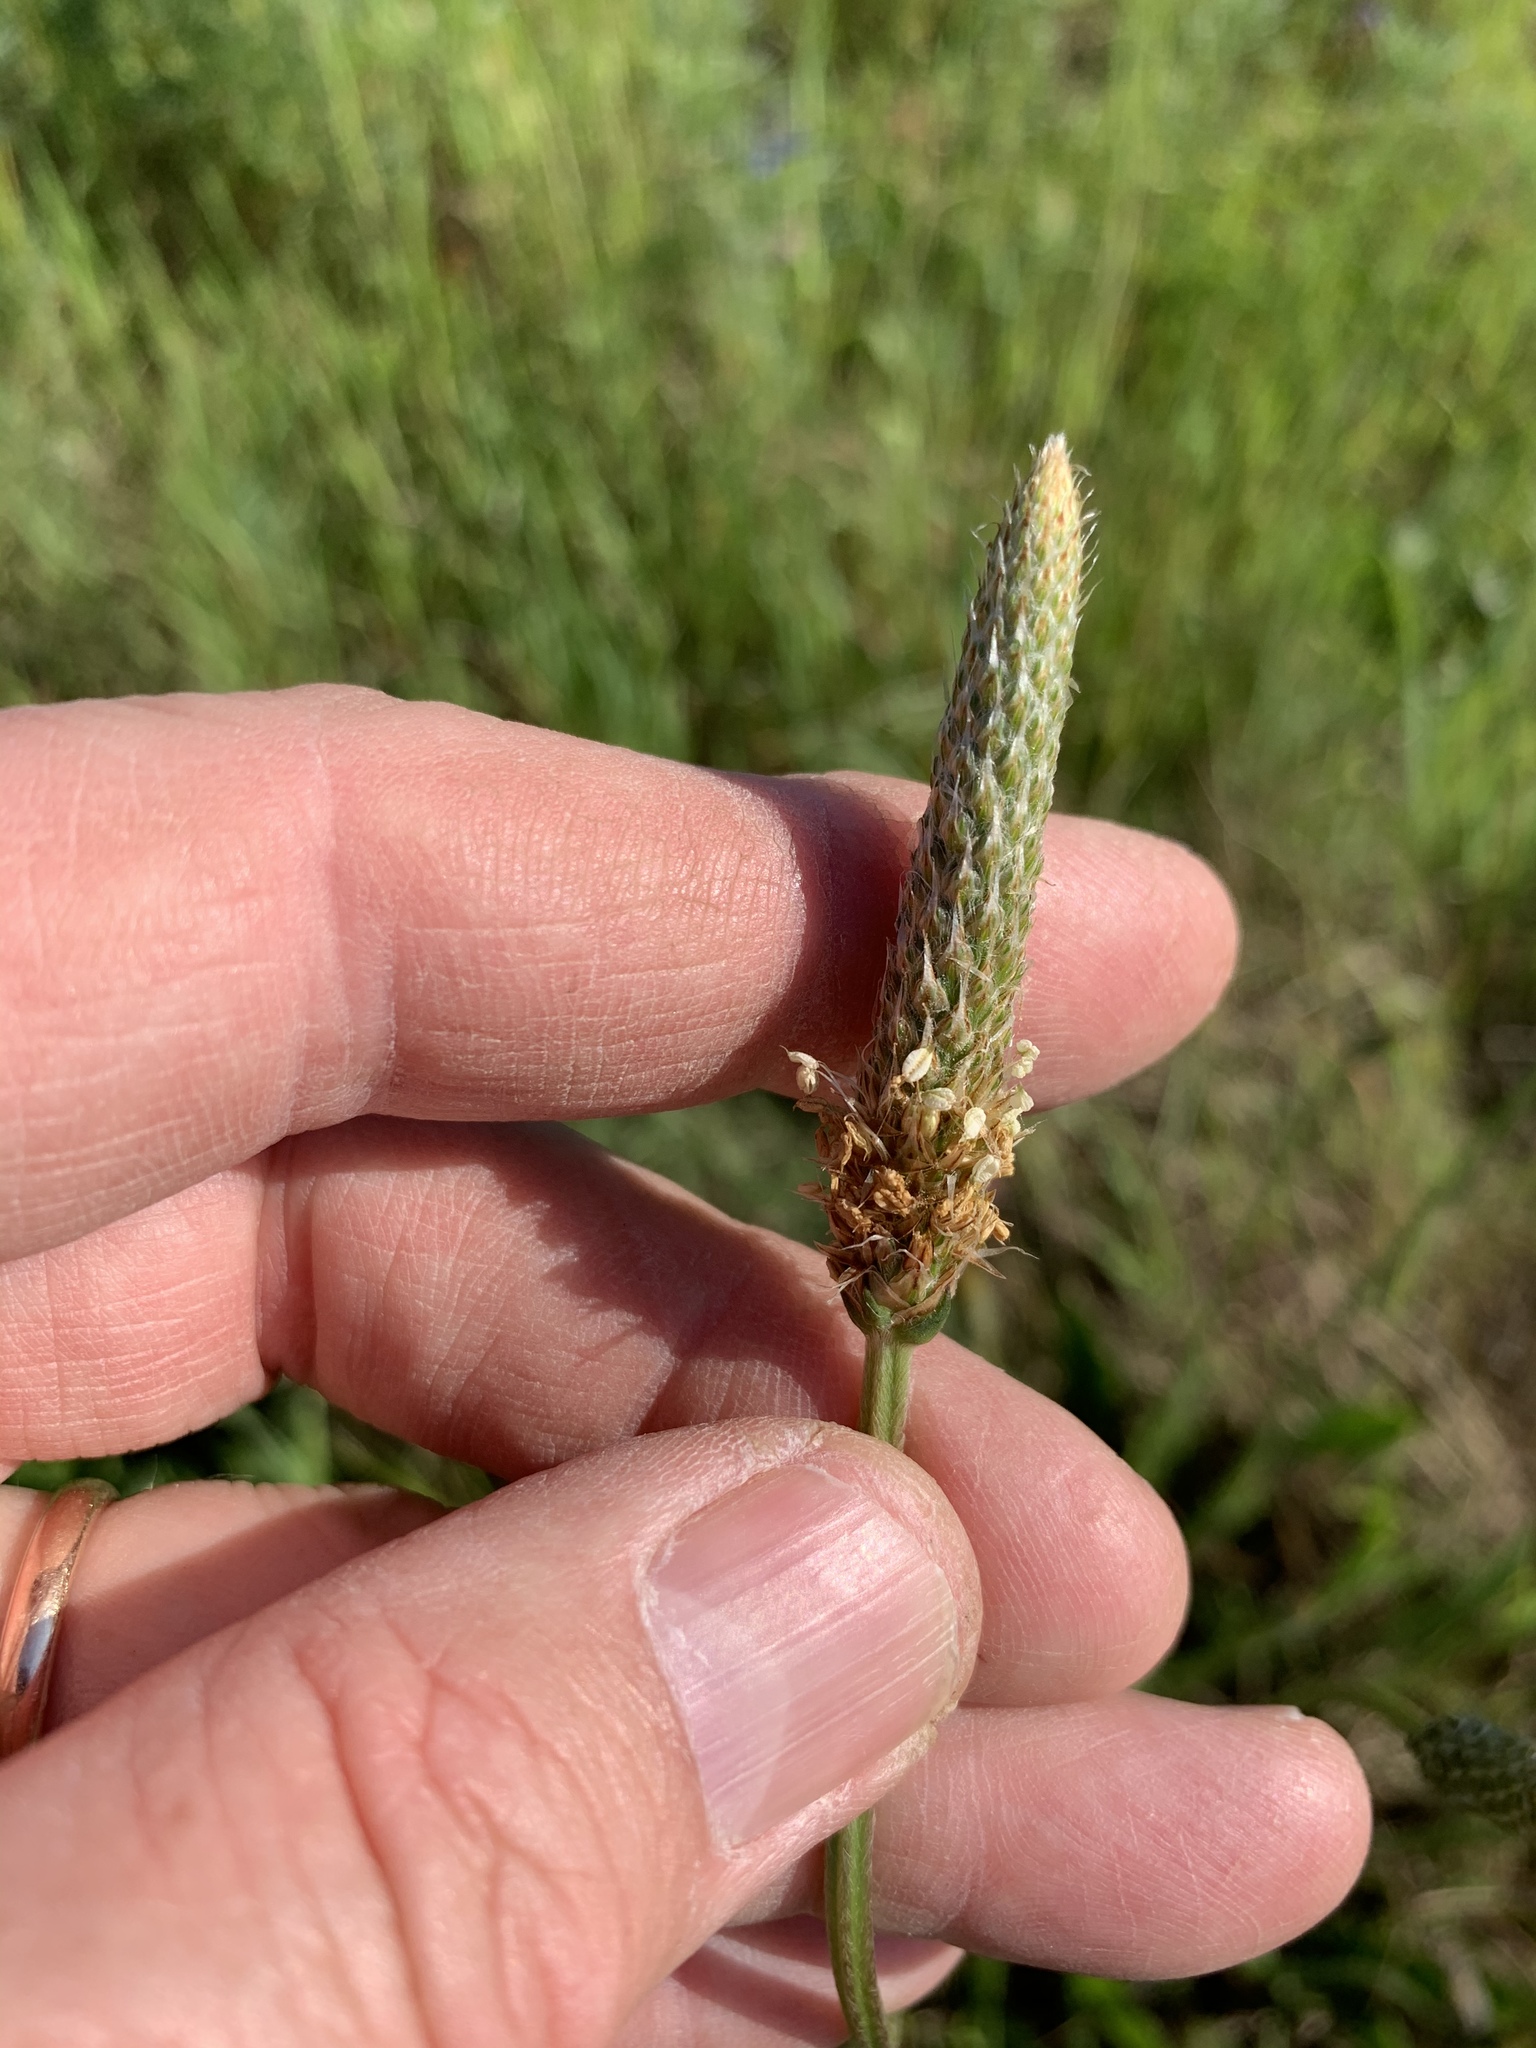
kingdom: Plantae
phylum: Tracheophyta
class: Magnoliopsida
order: Lamiales
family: Plantaginaceae
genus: Plantago
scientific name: Plantago lanceolata
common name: Ribwort plantain
